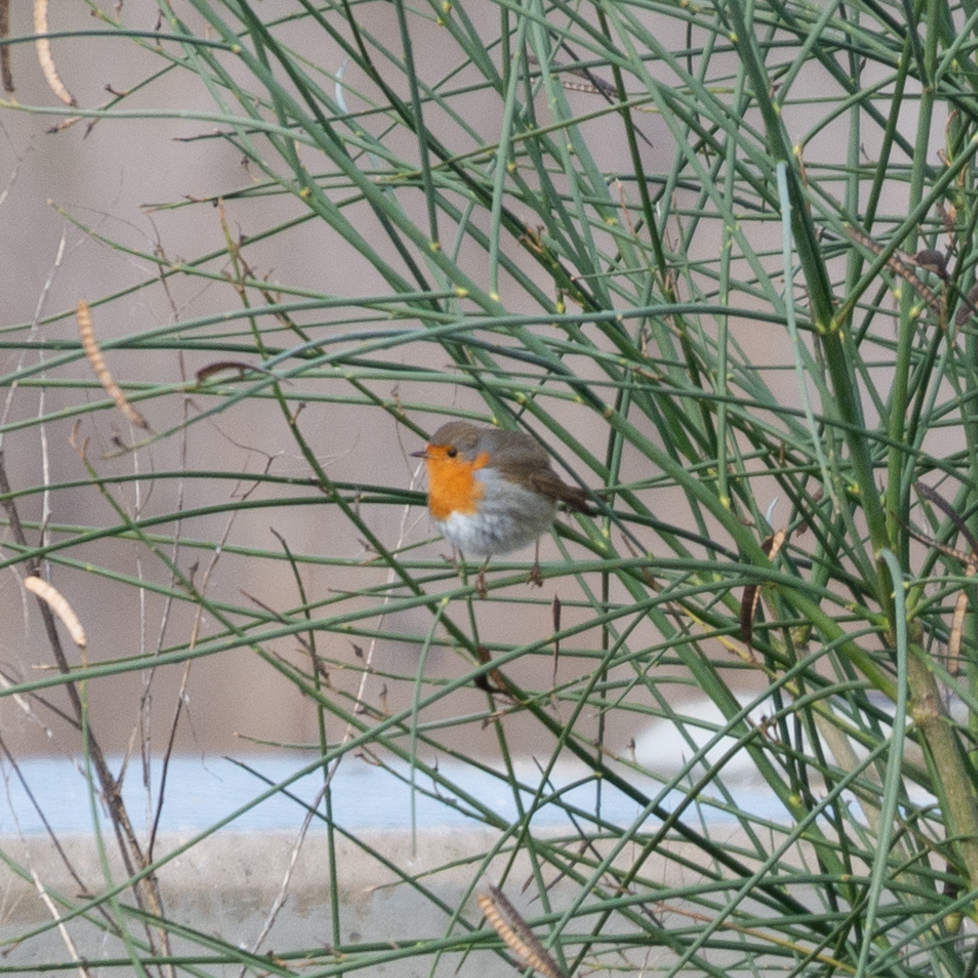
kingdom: Animalia
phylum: Chordata
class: Aves
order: Passeriformes
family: Muscicapidae
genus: Erithacus
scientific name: Erithacus rubecula
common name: European robin
